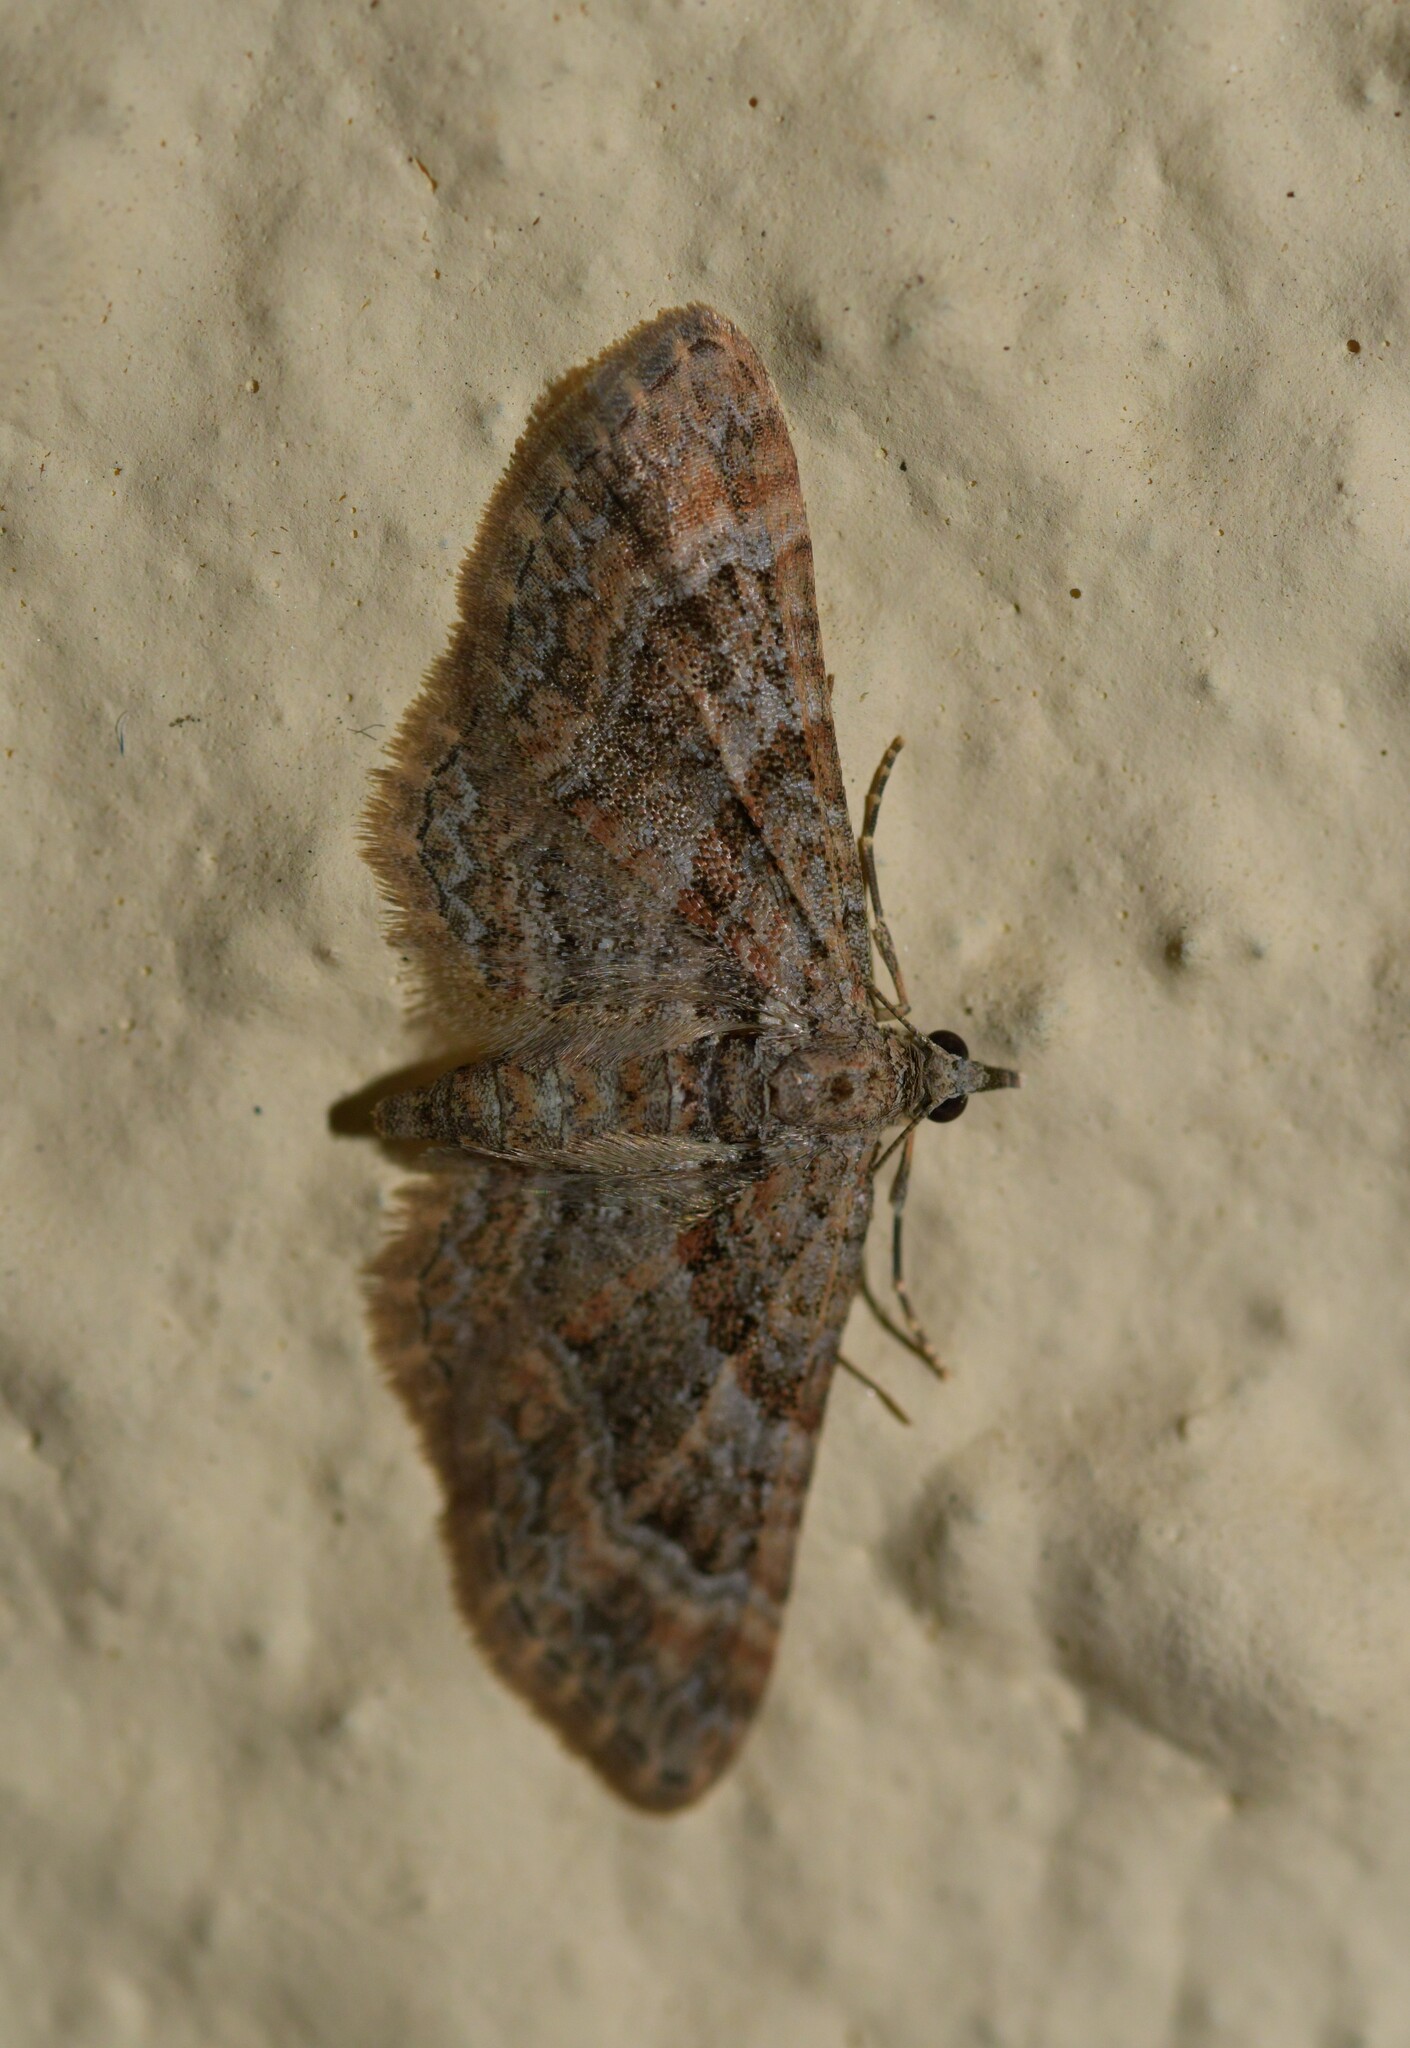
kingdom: Animalia
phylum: Arthropoda
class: Insecta
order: Lepidoptera
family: Geometridae
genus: Gymnoscelis
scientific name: Gymnoscelis rufifasciata
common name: Double-striped pug
